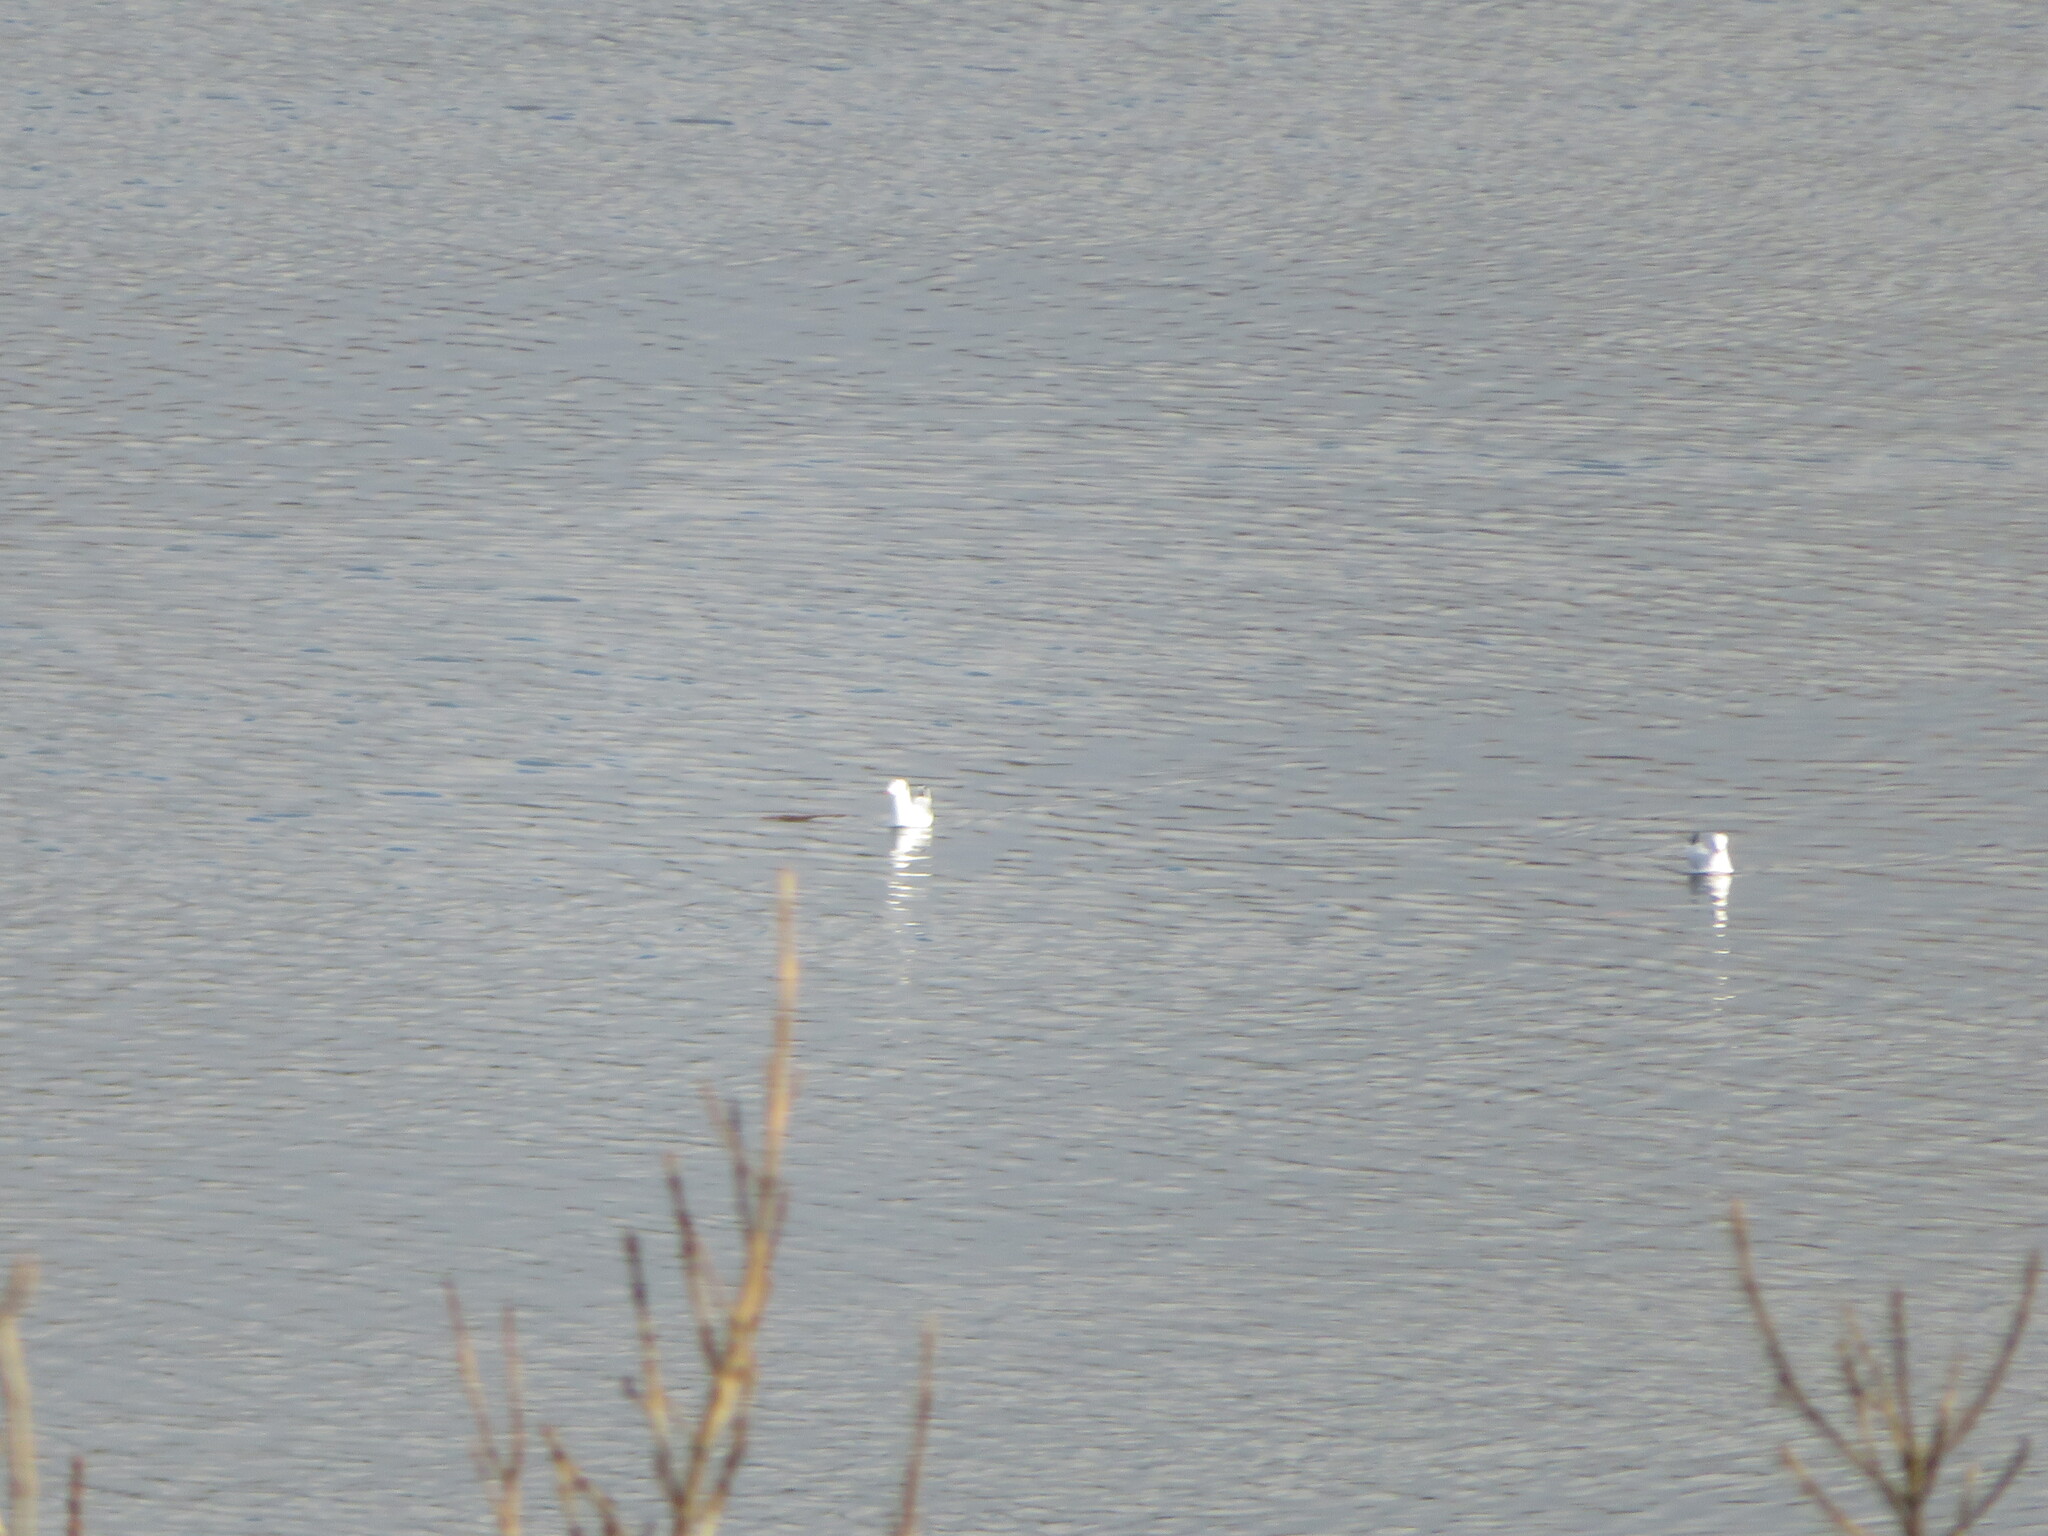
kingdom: Animalia
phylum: Chordata
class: Aves
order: Charadriiformes
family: Laridae
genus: Chroicocephalus
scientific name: Chroicocephalus ridibundus
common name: Black-headed gull
